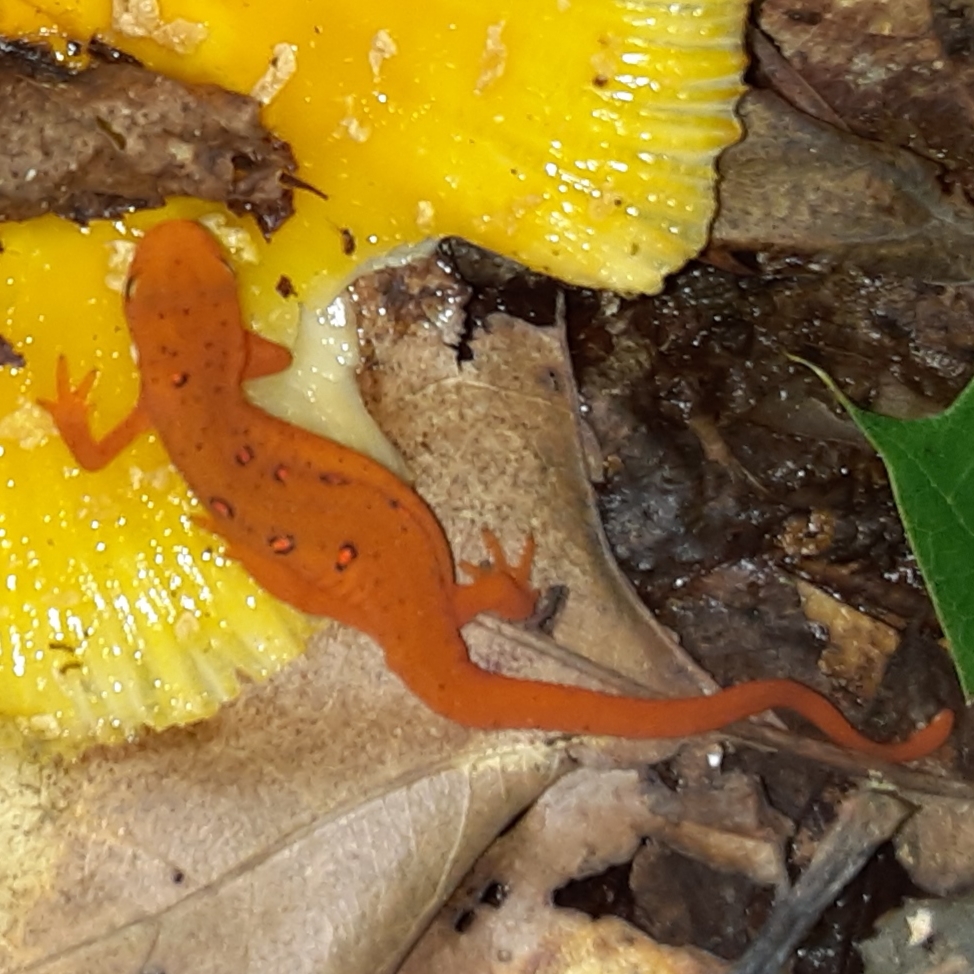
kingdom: Animalia
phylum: Chordata
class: Amphibia
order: Caudata
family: Salamandridae
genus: Notophthalmus
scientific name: Notophthalmus viridescens
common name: Eastern newt
